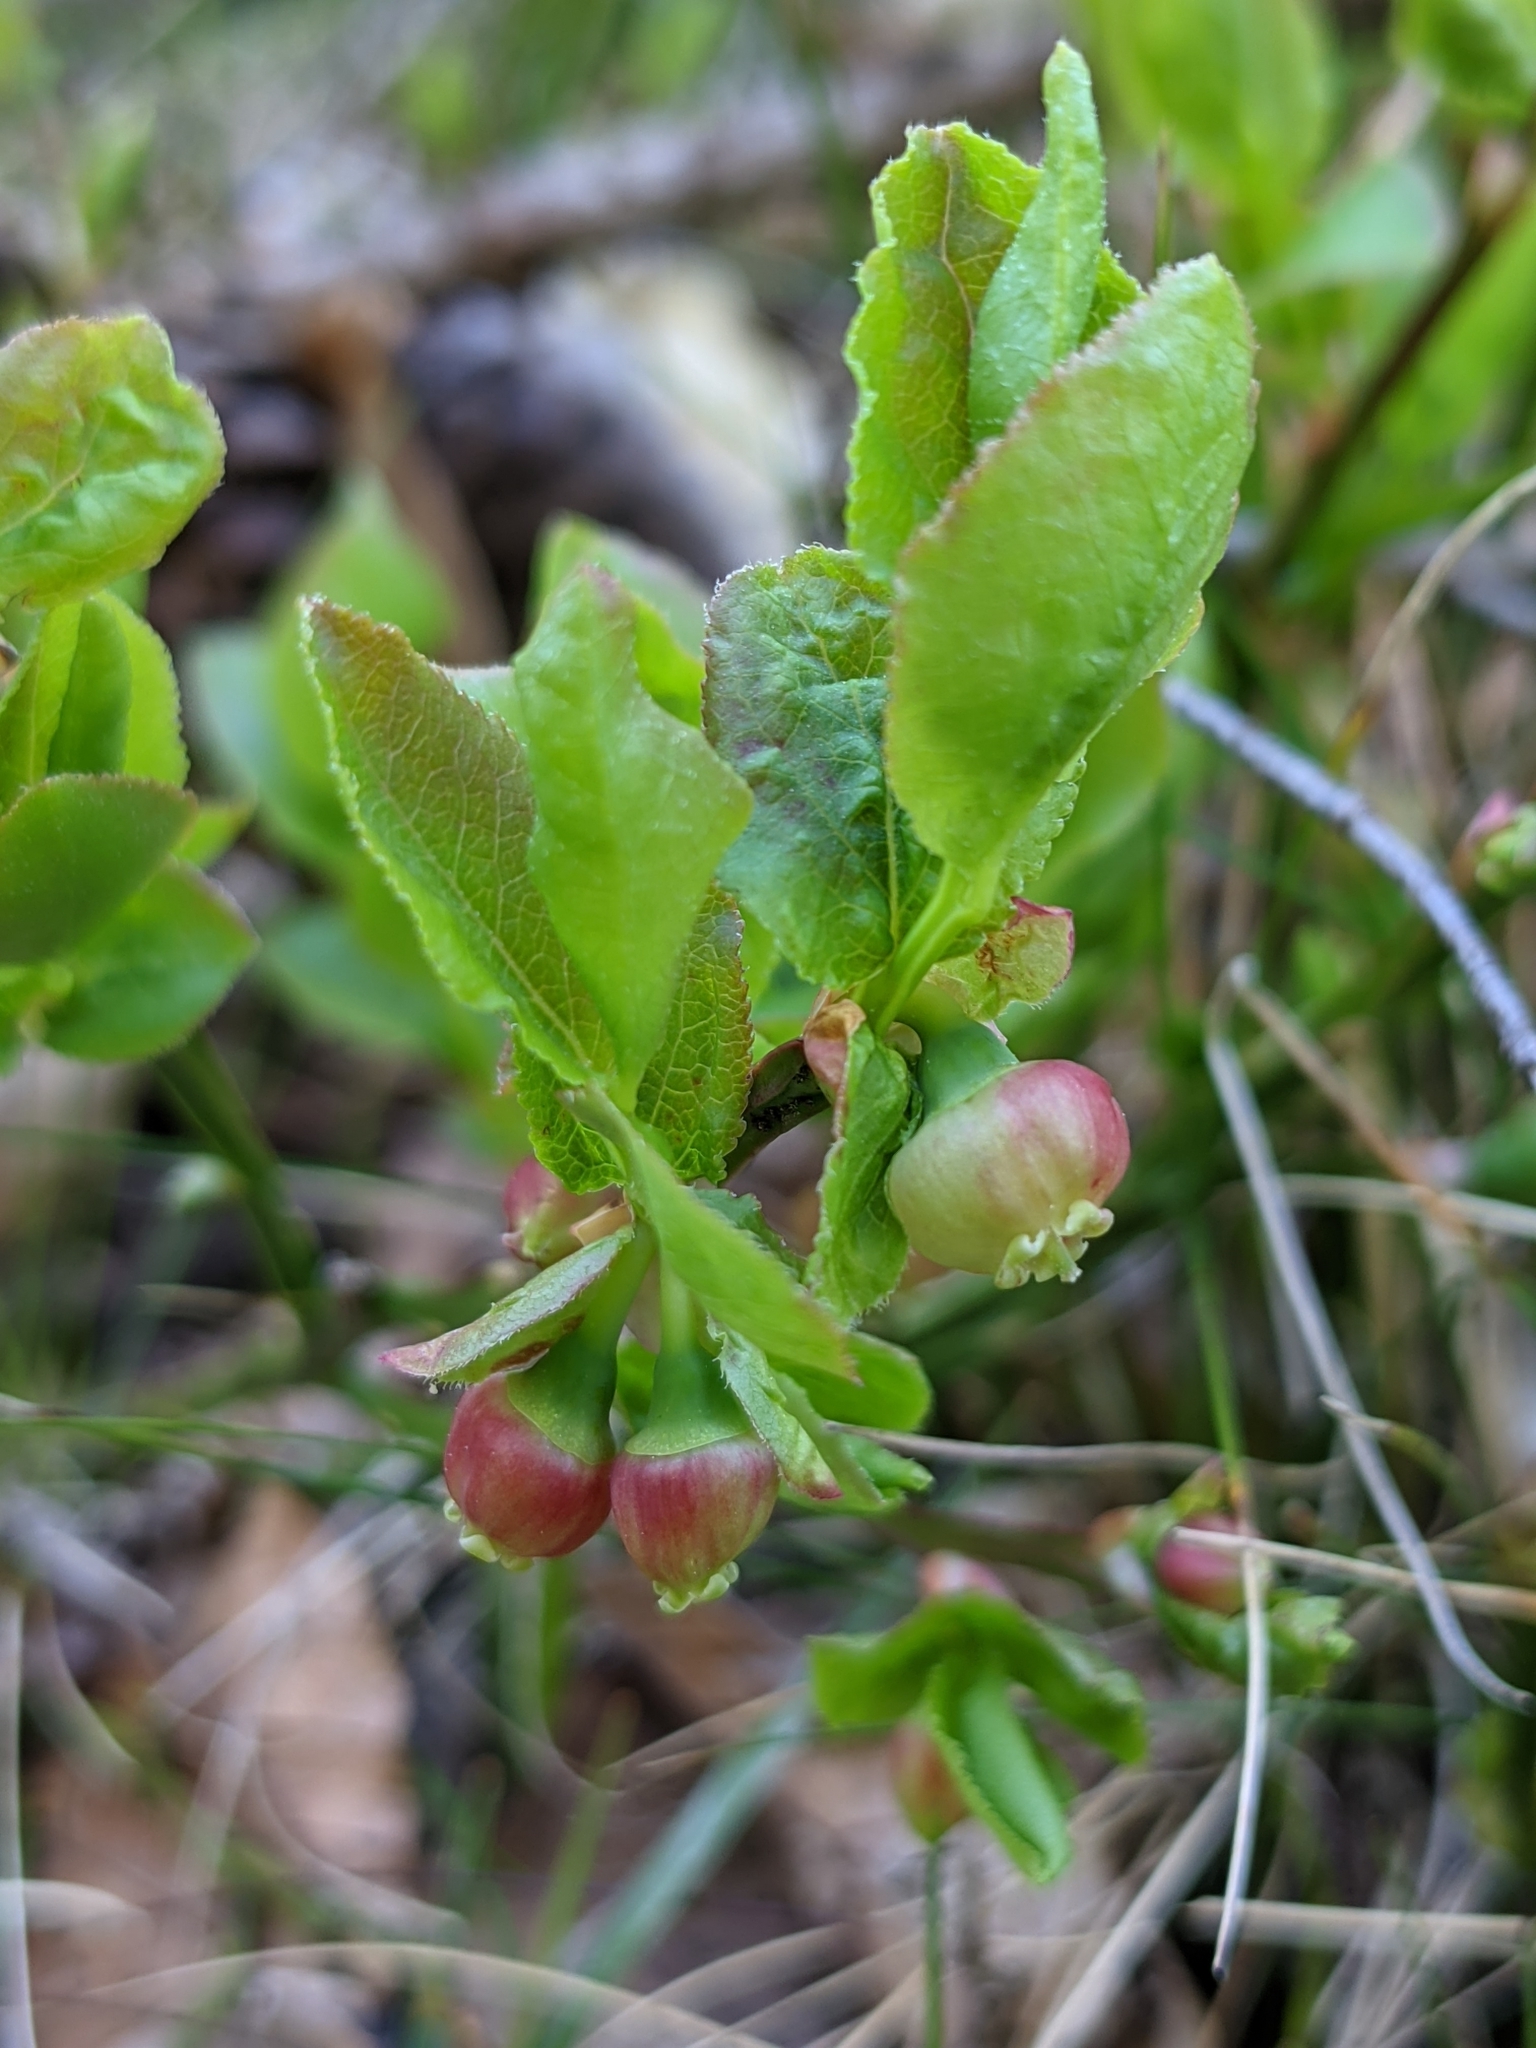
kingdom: Plantae
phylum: Tracheophyta
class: Magnoliopsida
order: Ericales
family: Ericaceae
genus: Vaccinium
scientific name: Vaccinium myrtillus
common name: Bilberry
